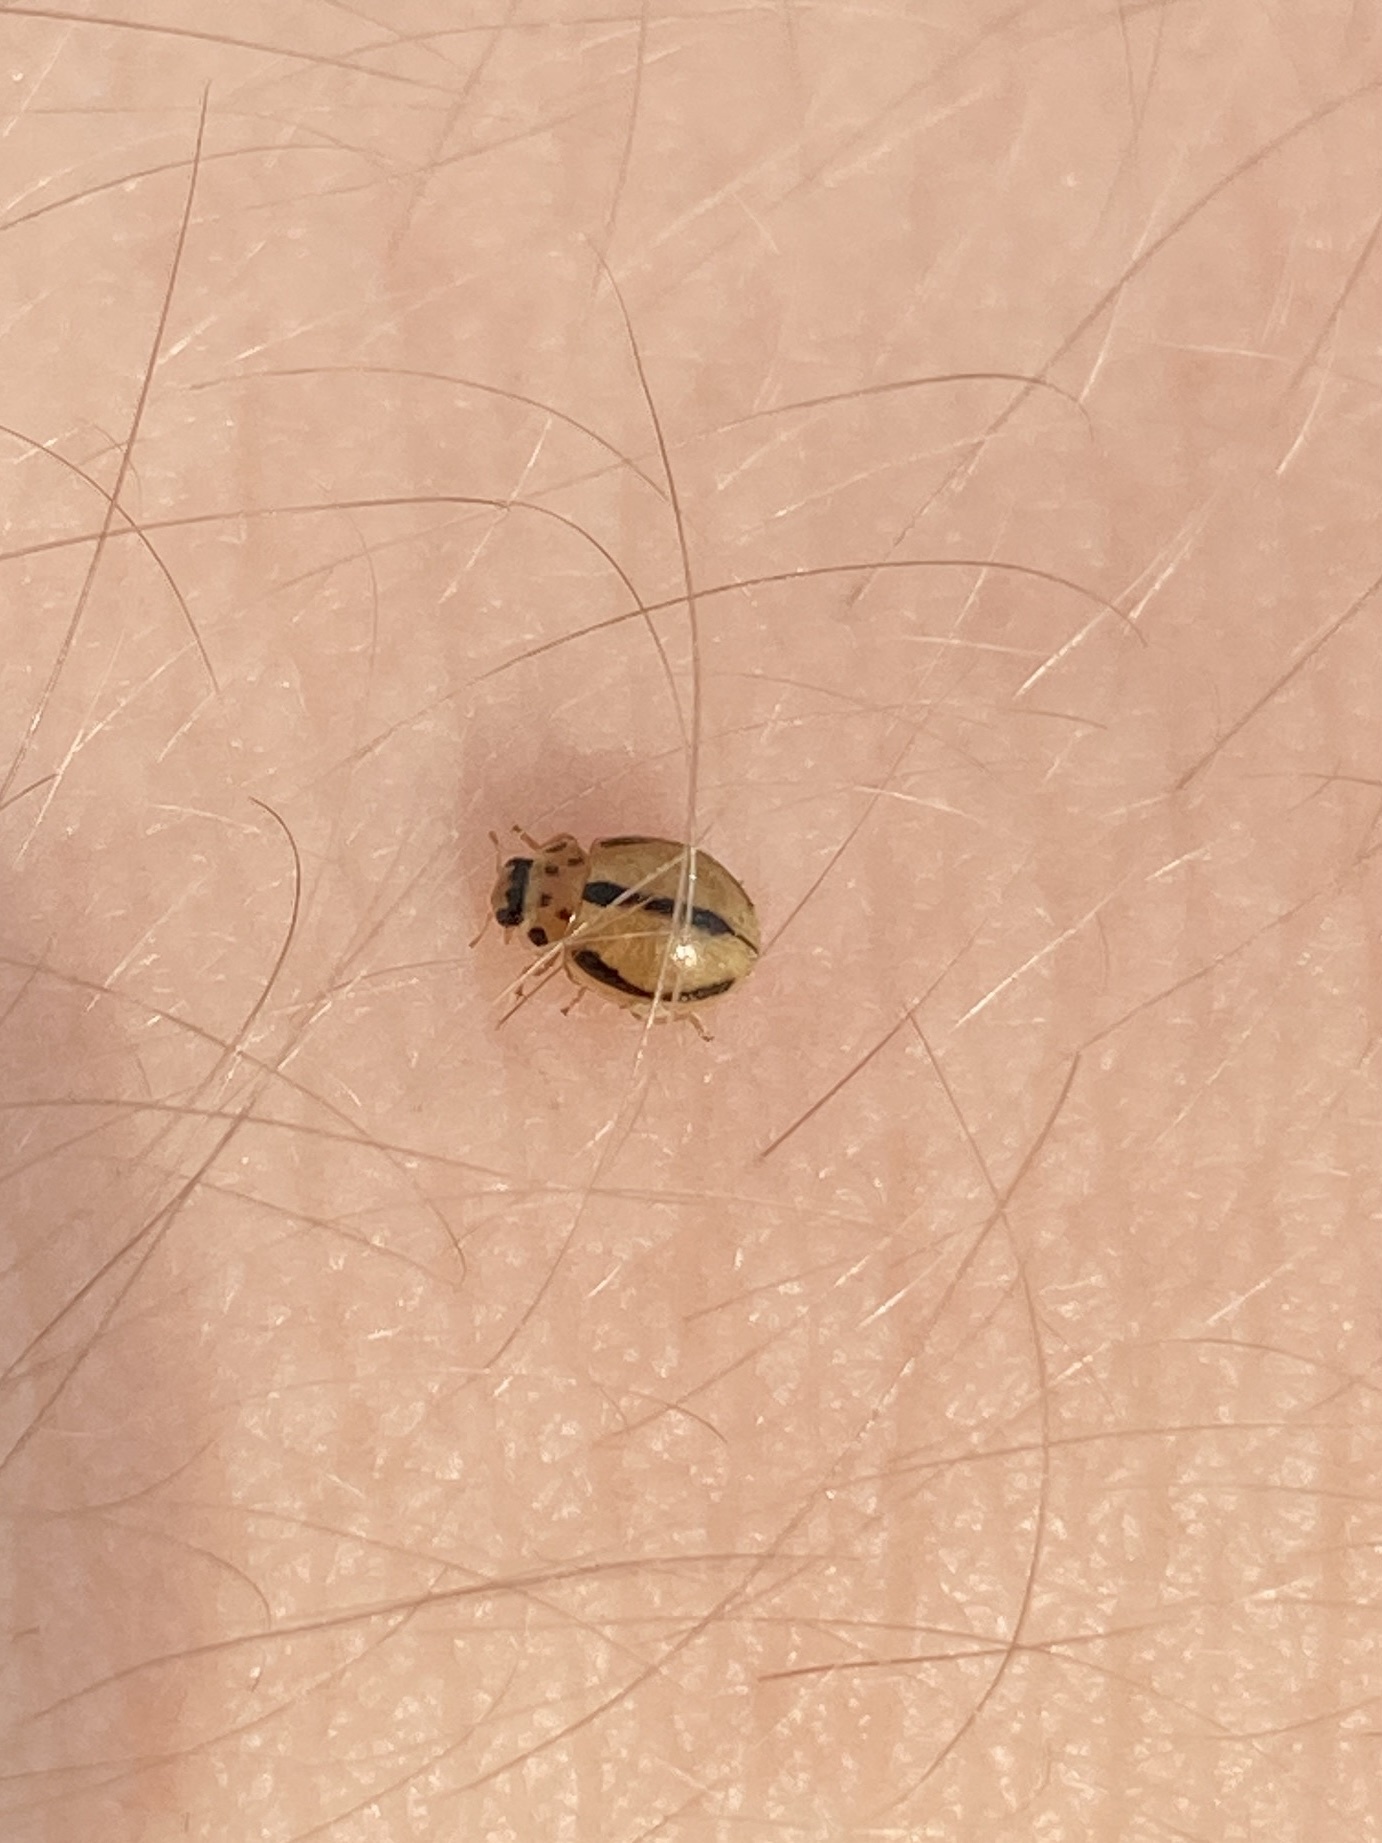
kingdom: Animalia
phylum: Arthropoda
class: Insecta
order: Coleoptera
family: Coccinellidae
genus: Tytthaspis
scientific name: Tytthaspis gebleri
